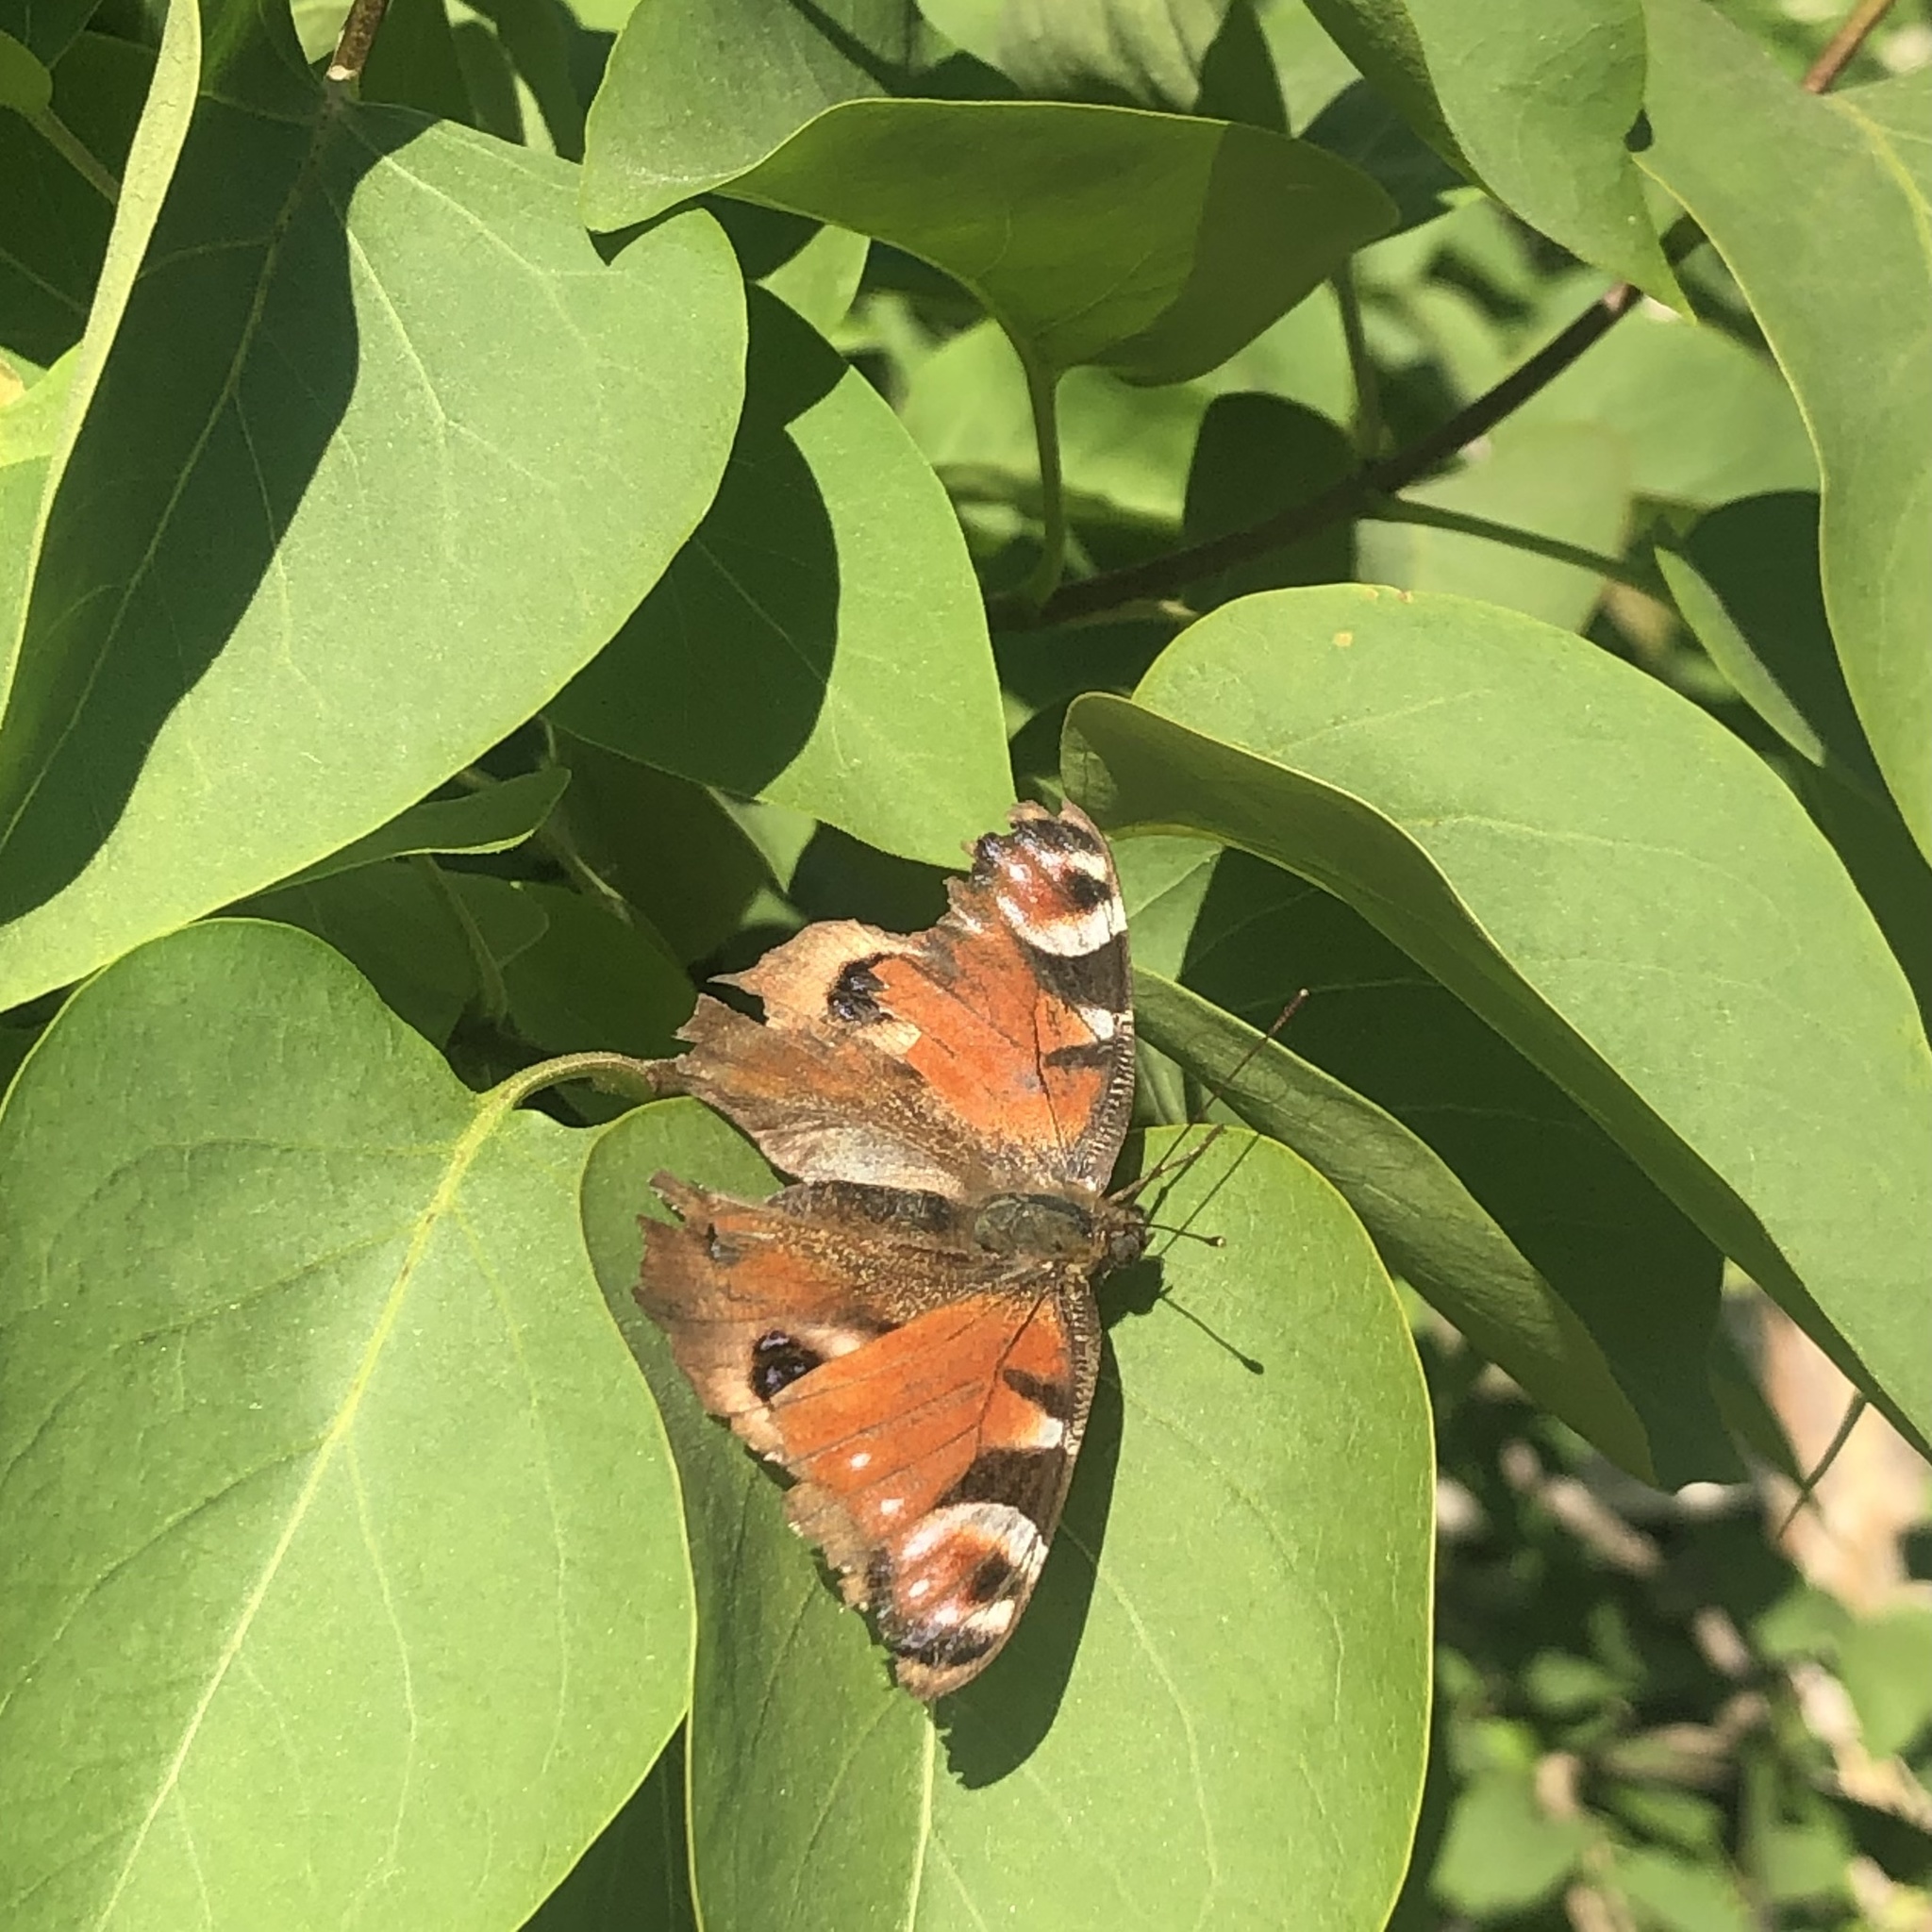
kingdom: Animalia
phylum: Arthropoda
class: Insecta
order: Lepidoptera
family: Nymphalidae
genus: Aglais
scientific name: Aglais io
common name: Peacock
